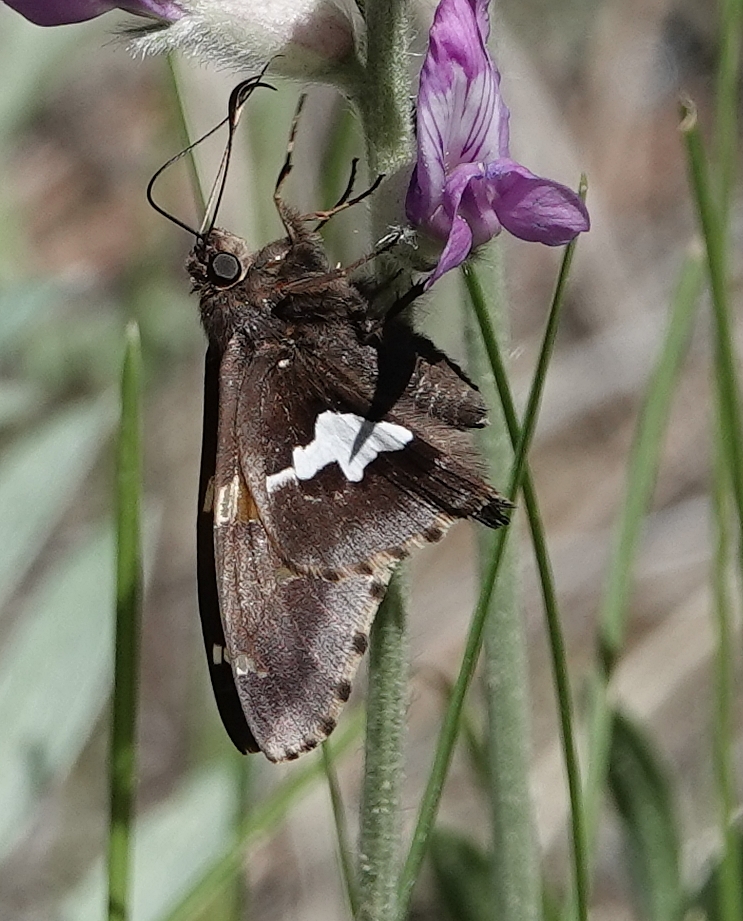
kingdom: Animalia
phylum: Arthropoda
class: Insecta
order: Lepidoptera
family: Hesperiidae
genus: Epargyreus
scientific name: Epargyreus clarus
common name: Silver-spotted skipper
